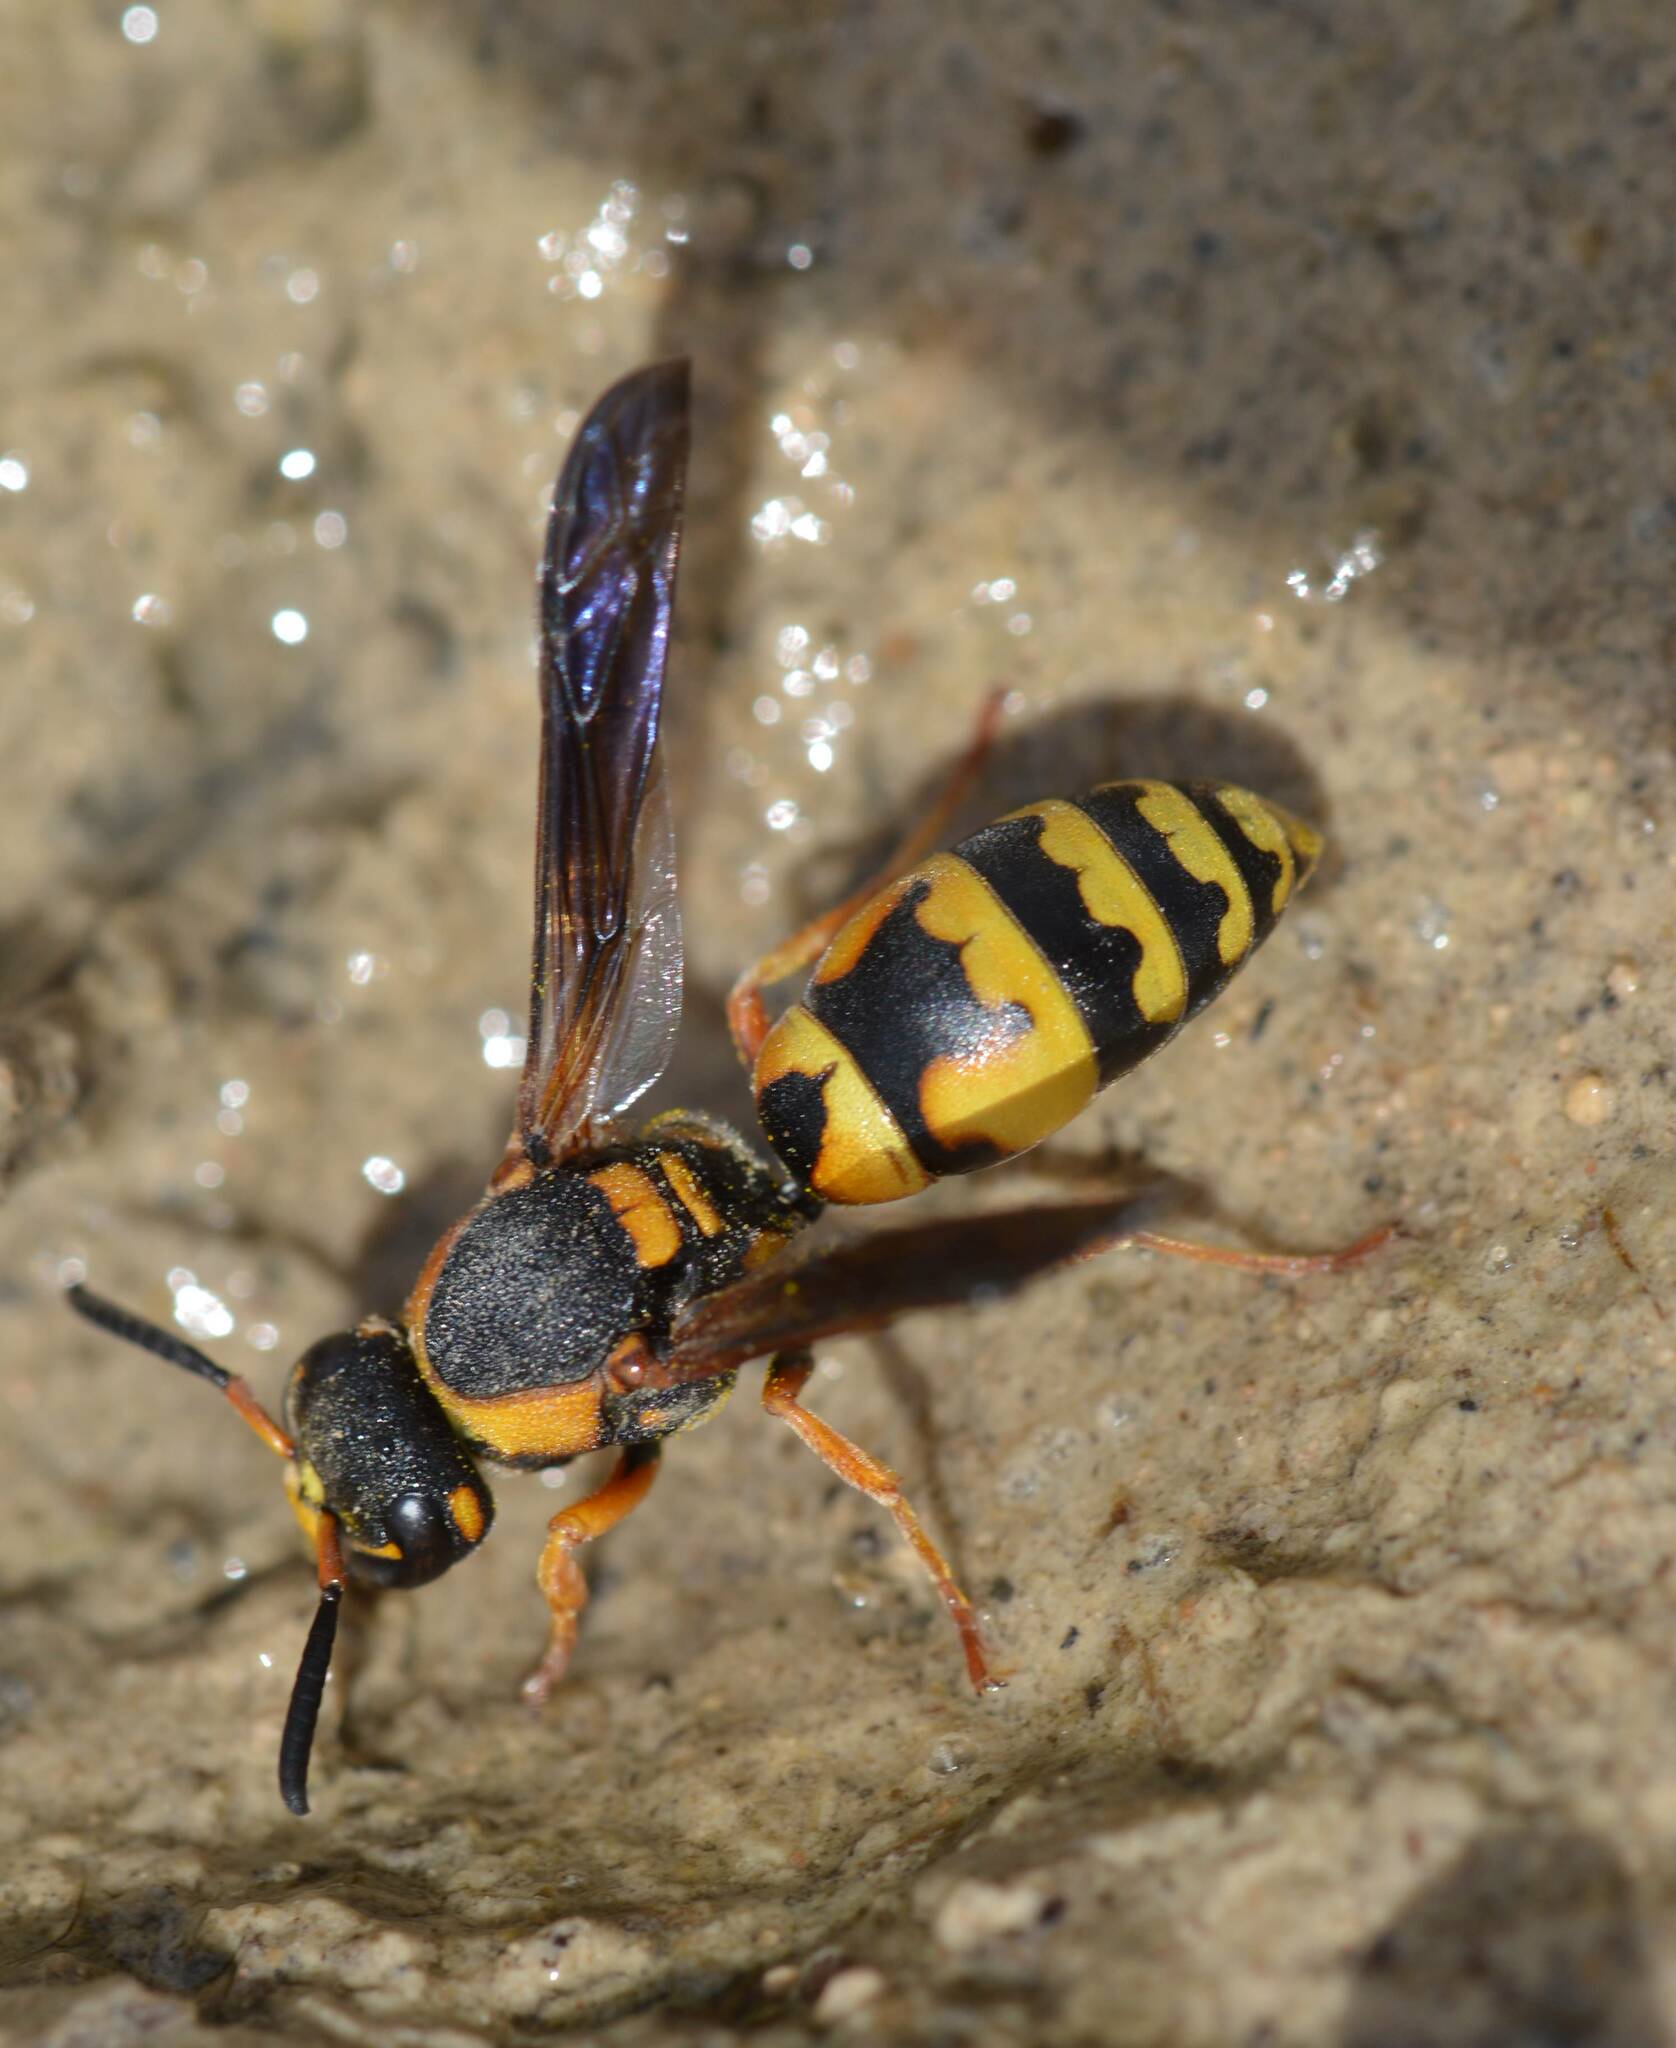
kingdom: Animalia
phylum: Arthropoda
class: Insecta
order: Hymenoptera
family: Eumenidae
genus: Tropidodynerus
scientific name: Tropidodynerus flavus
